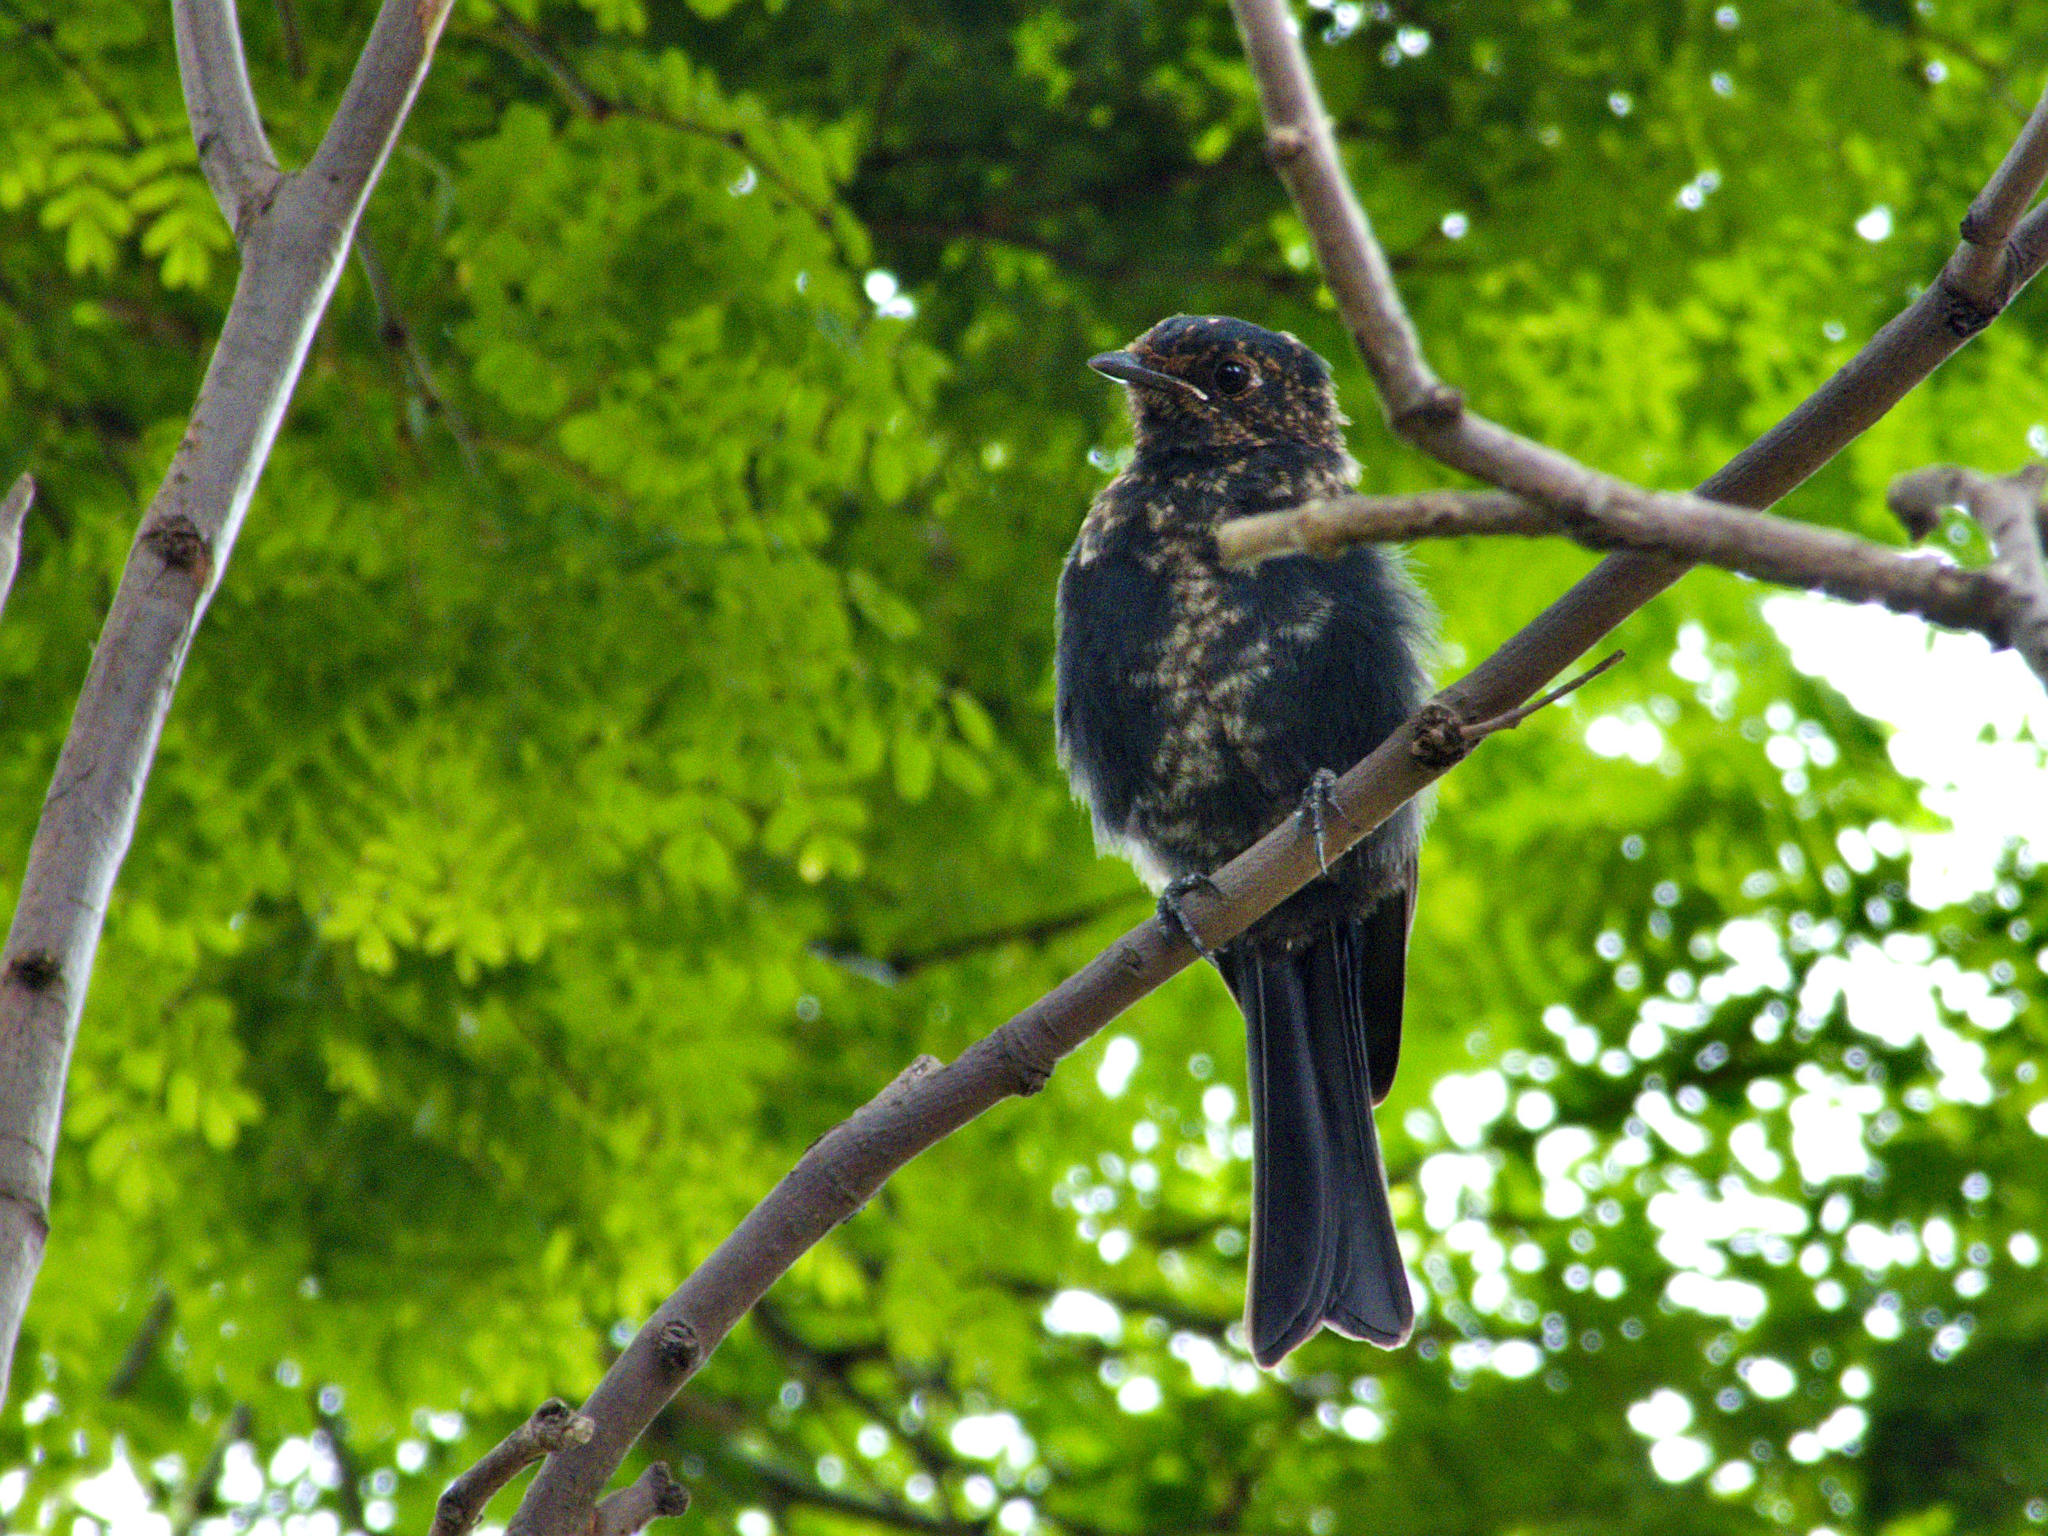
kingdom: Animalia
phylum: Chordata
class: Aves
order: Passeriformes
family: Muscicapidae
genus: Melaenornis
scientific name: Melaenornis pammelaina
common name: Southern black flycatcher
